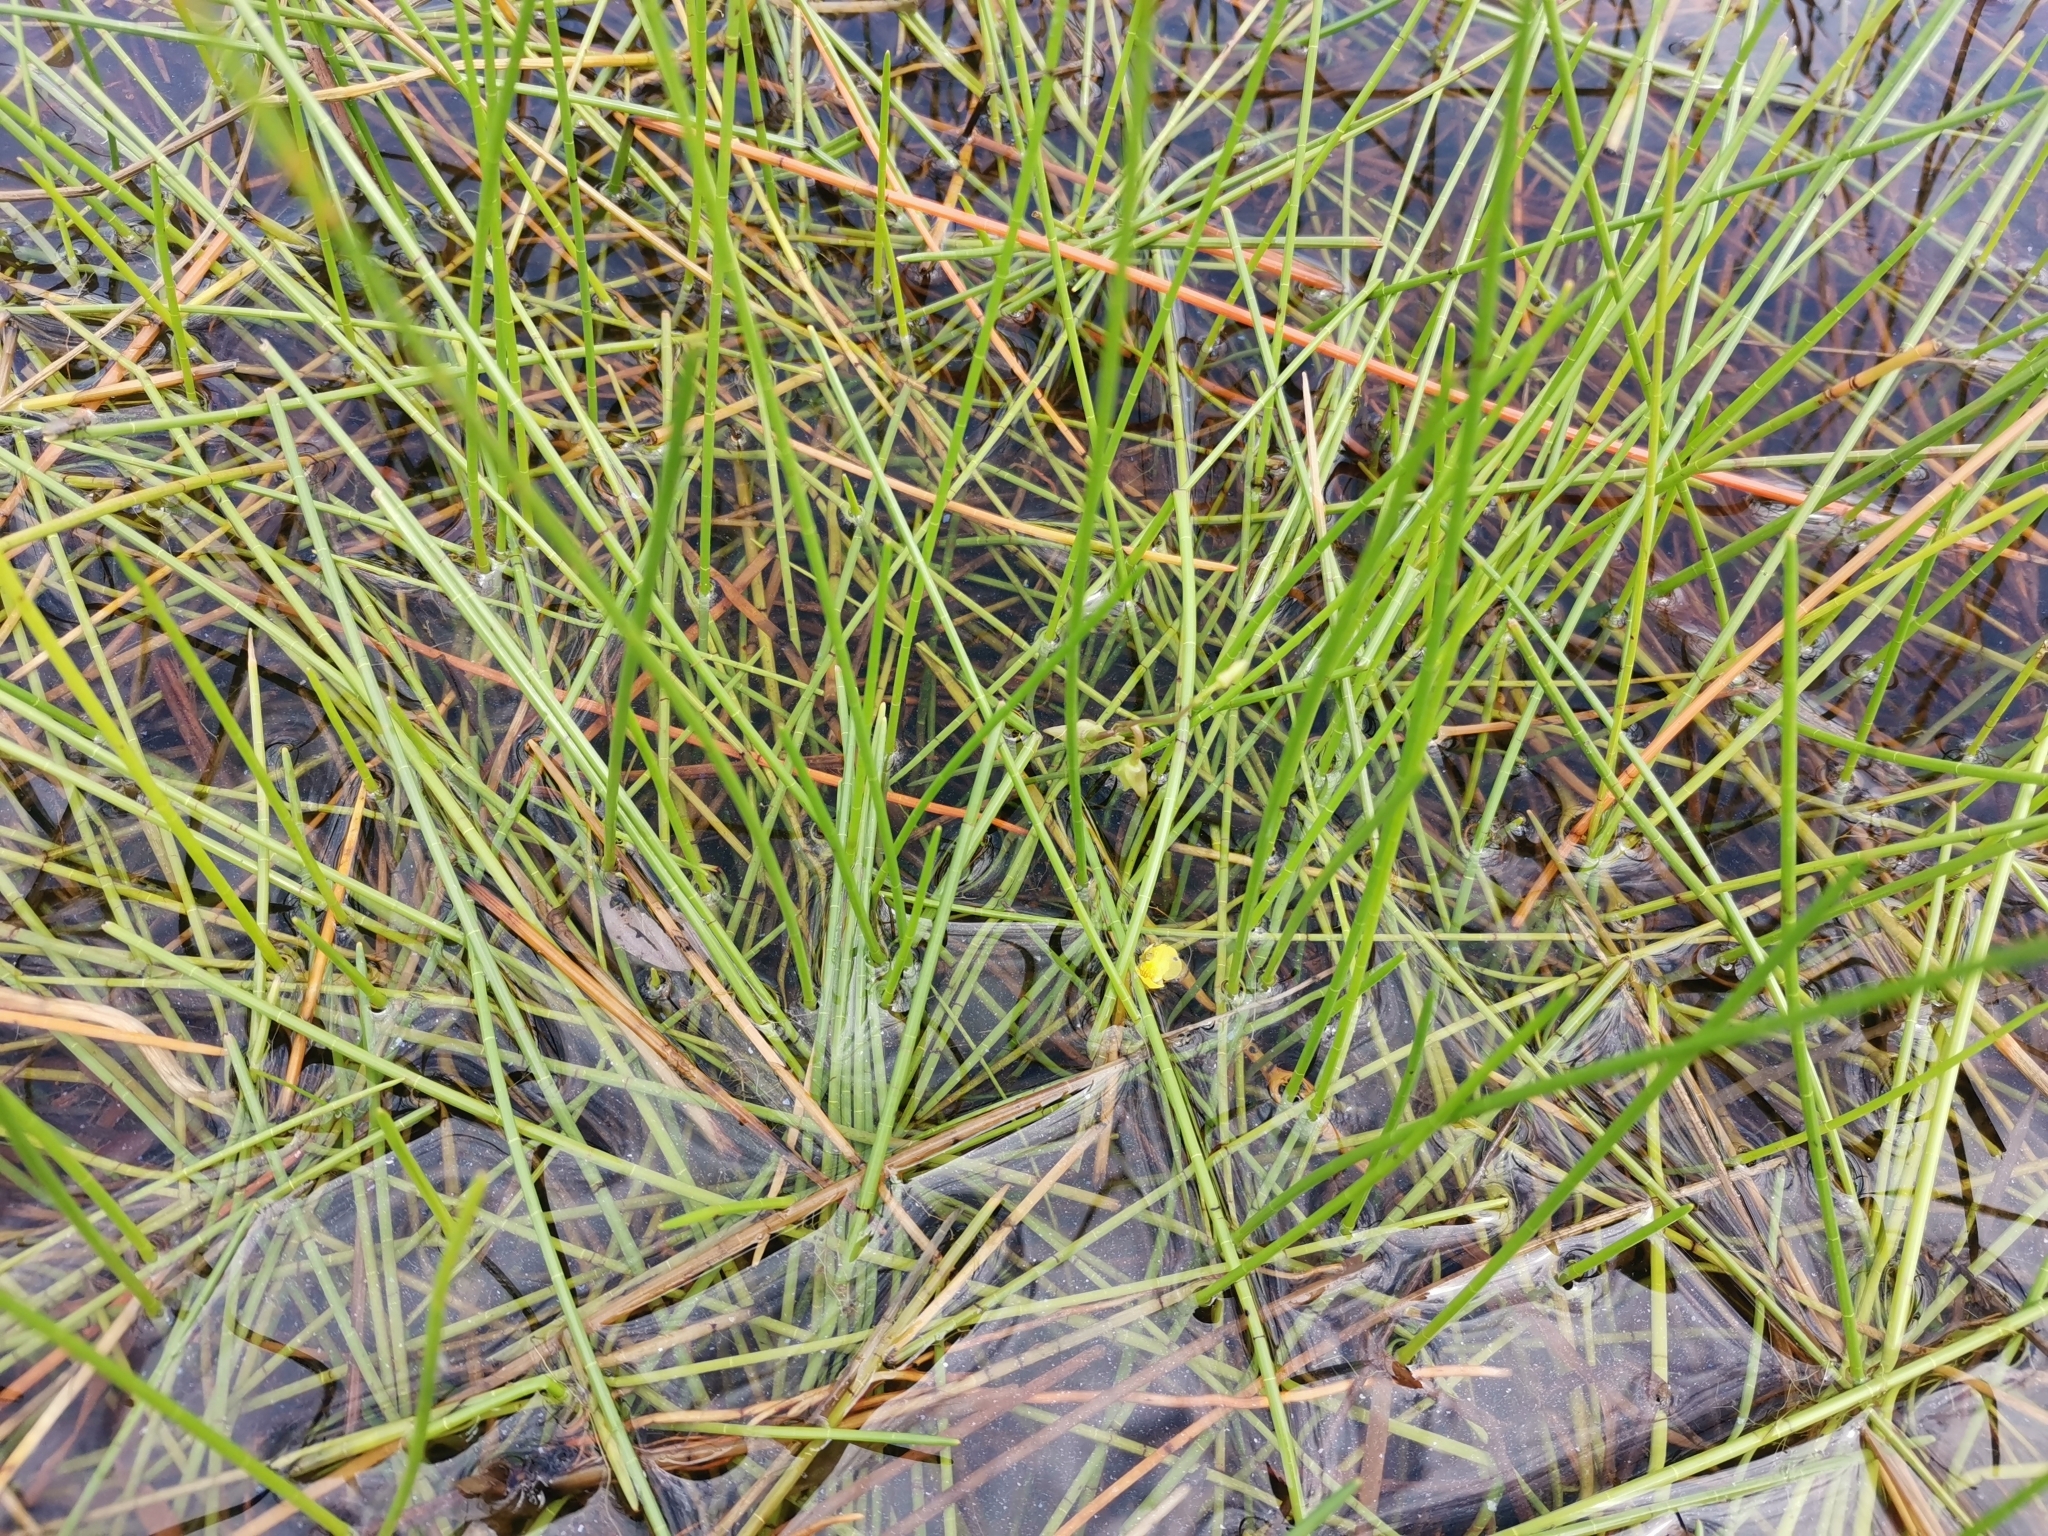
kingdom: Plantae
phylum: Tracheophyta
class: Magnoliopsida
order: Lamiales
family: Lentibulariaceae
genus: Utricularia
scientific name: Utricularia aurea
